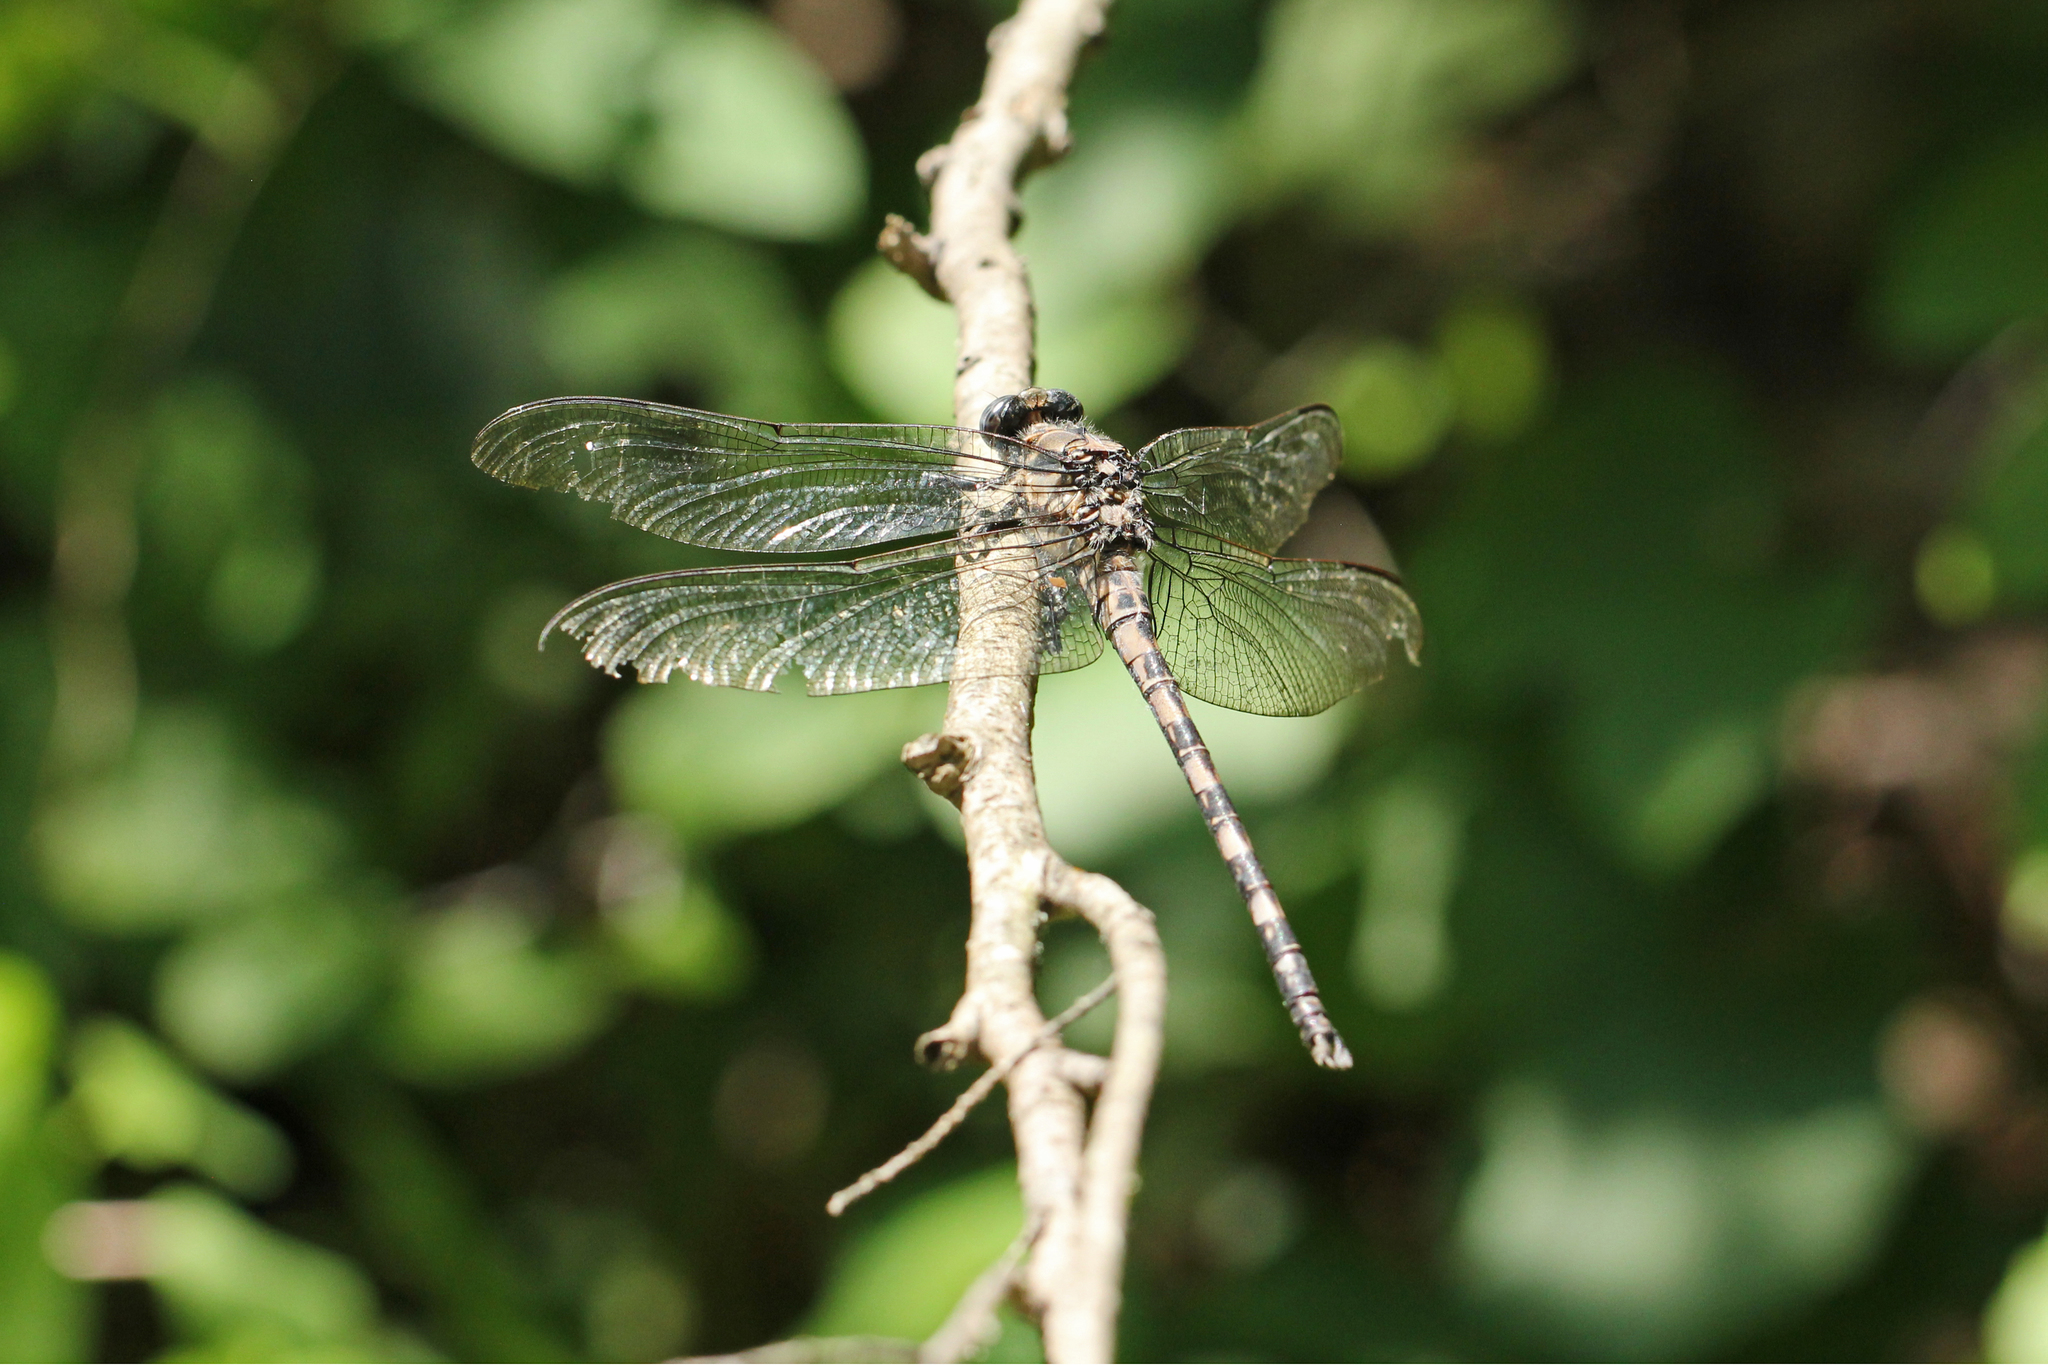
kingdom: Animalia
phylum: Arthropoda
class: Insecta
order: Odonata
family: Petaluridae
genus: Tachopteryx
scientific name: Tachopteryx thoreyi
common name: Gray petaltail
